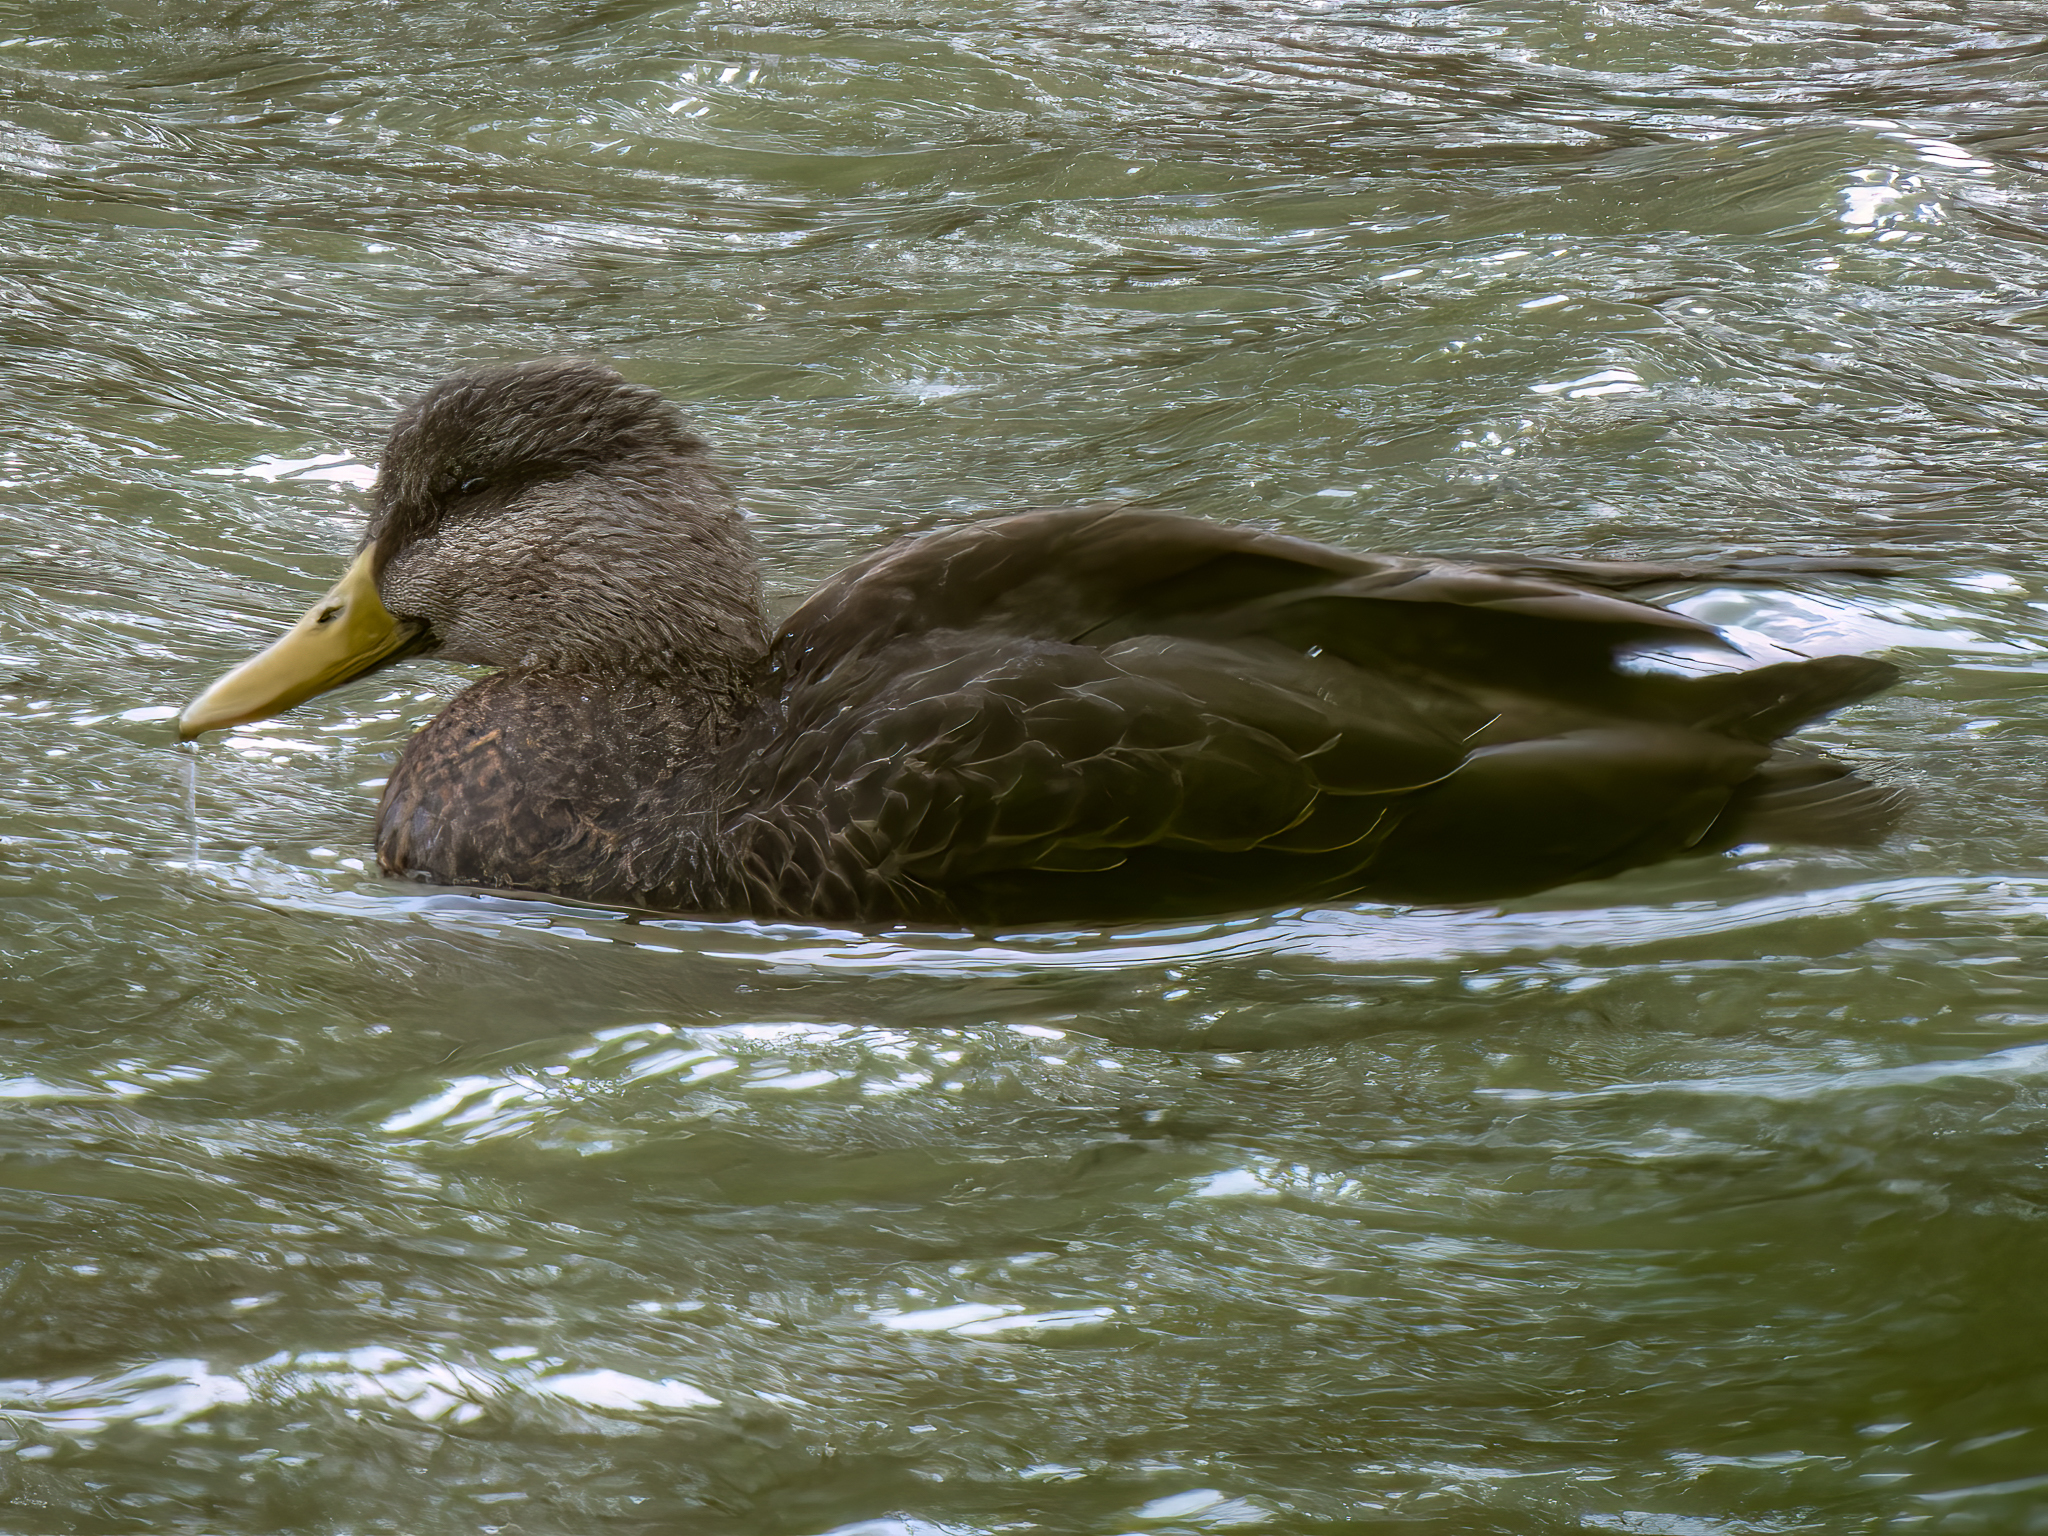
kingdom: Animalia
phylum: Chordata
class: Aves
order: Anseriformes
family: Anatidae
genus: Anas
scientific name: Anas rubripes
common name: American black duck
